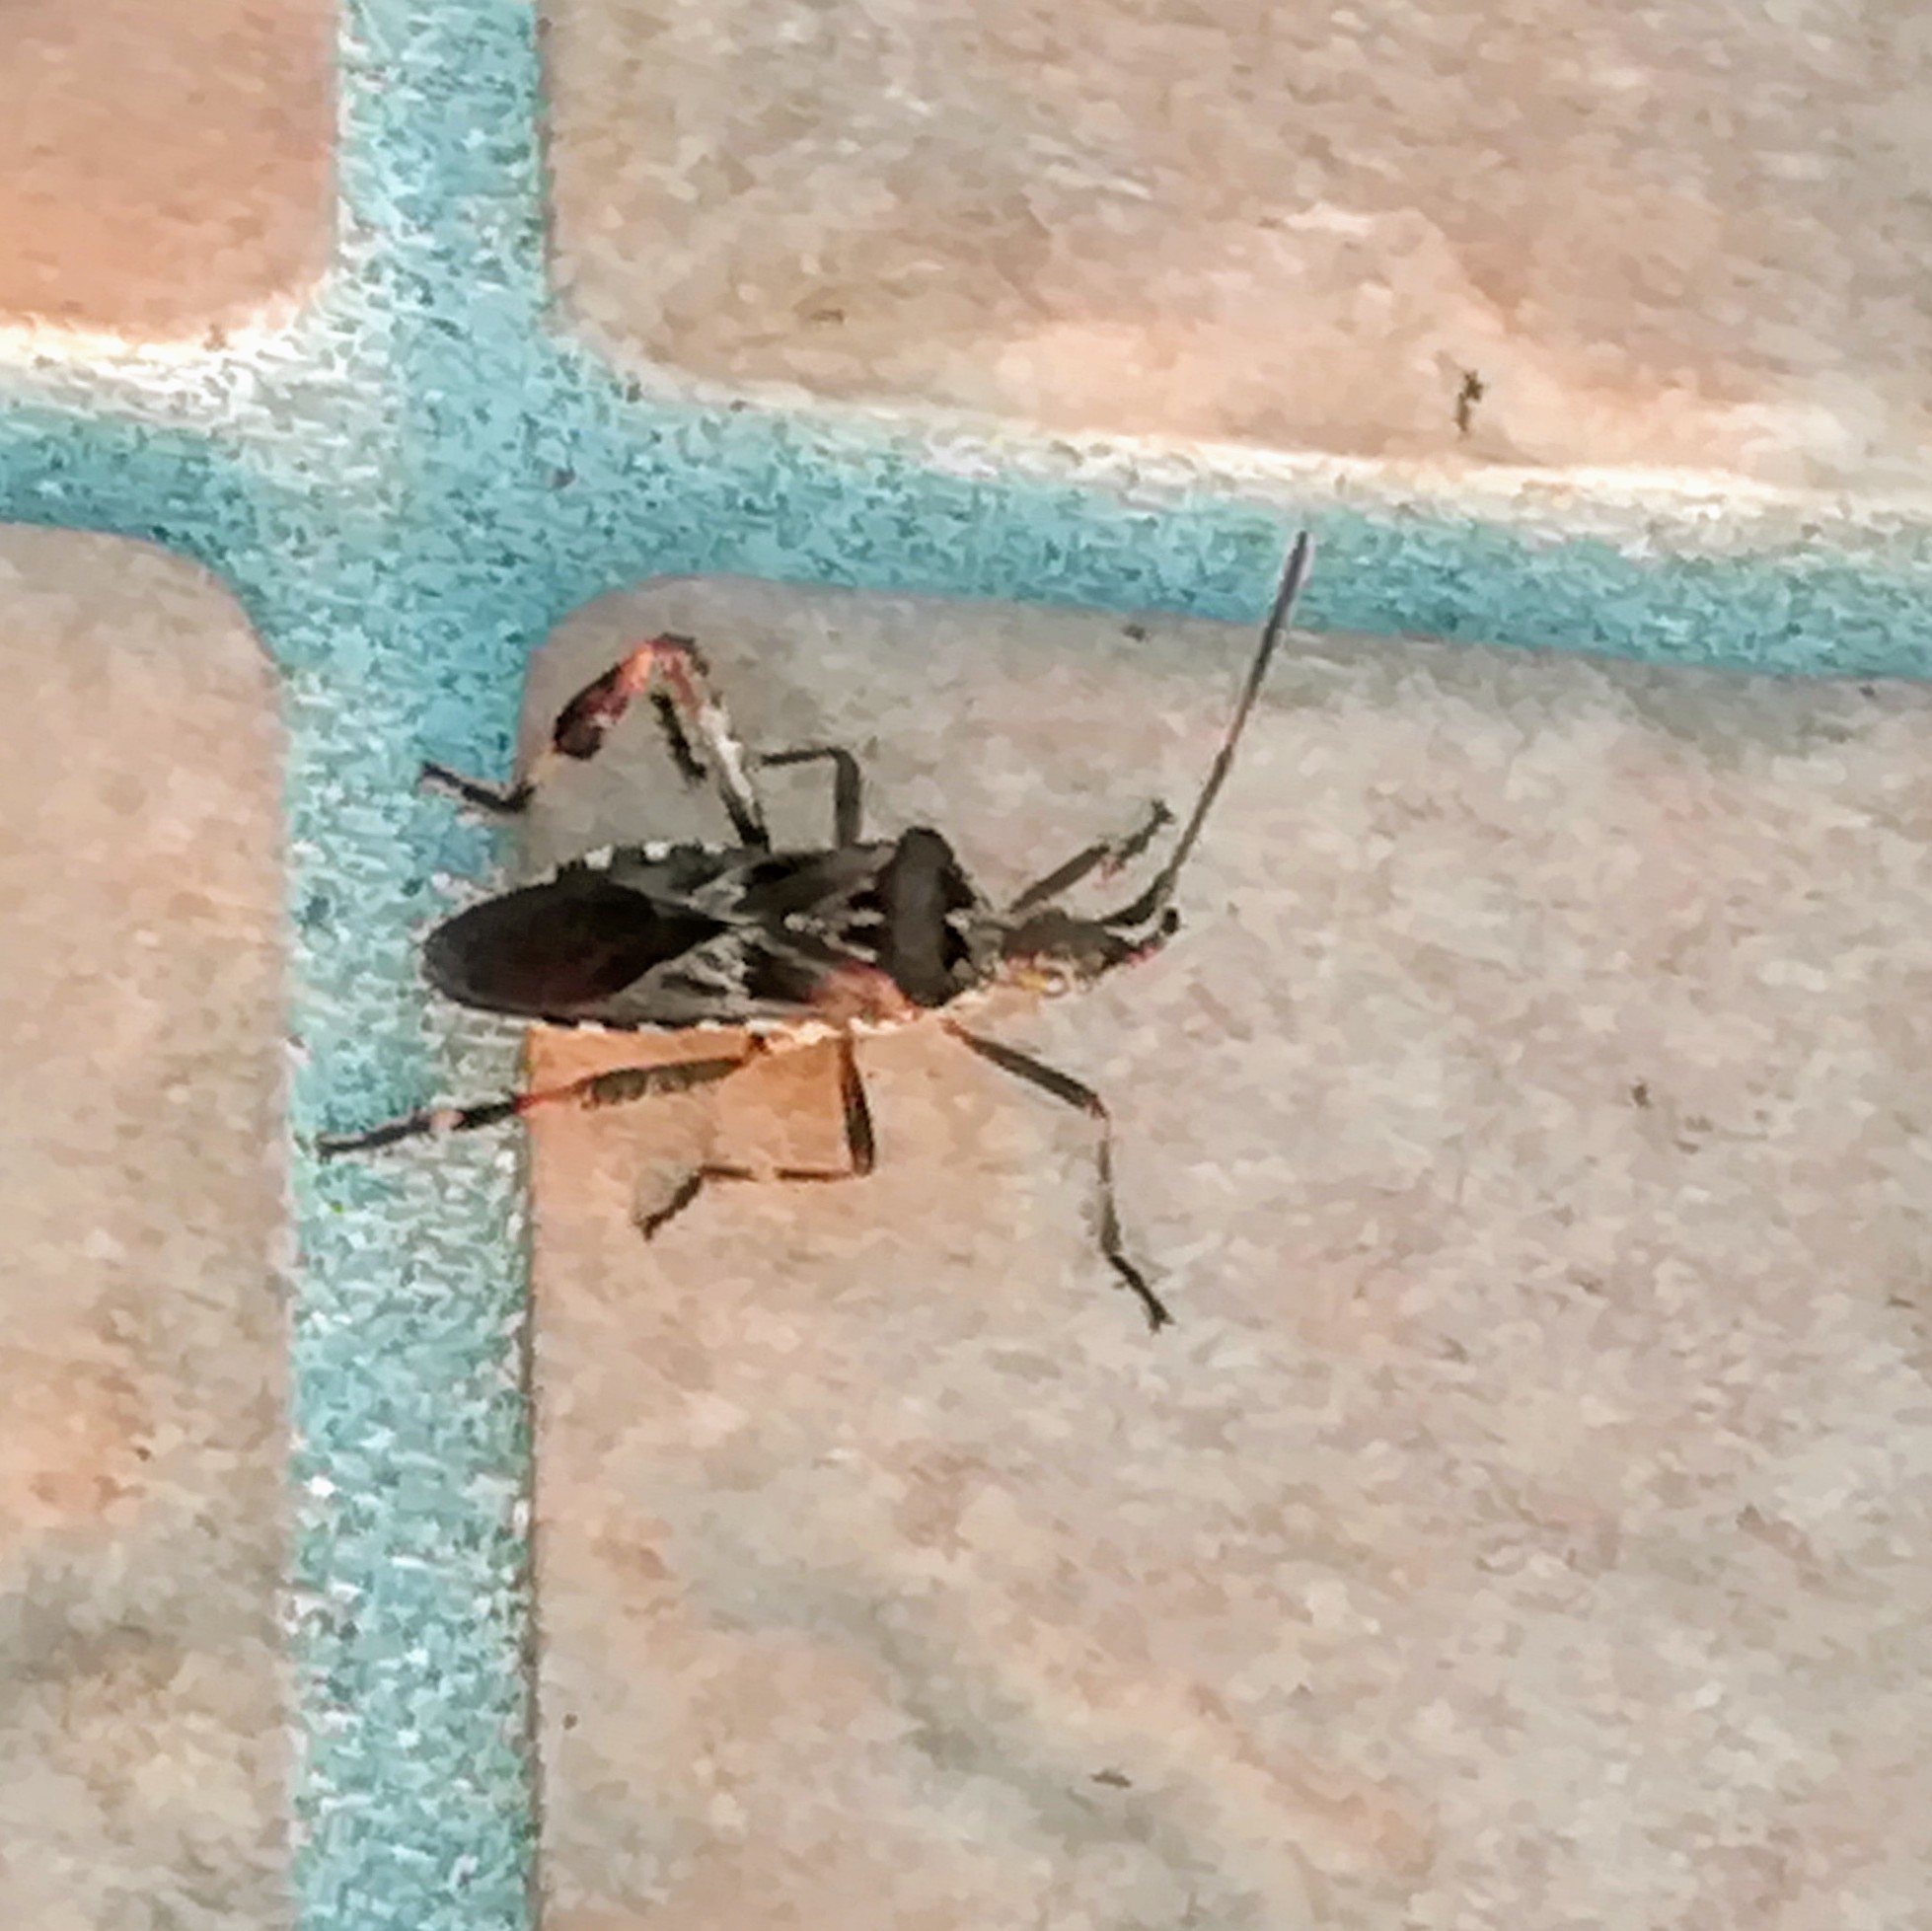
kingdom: Animalia
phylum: Arthropoda
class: Insecta
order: Hemiptera
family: Coreidae
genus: Leptoglossus
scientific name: Leptoglossus occidentalis
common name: Western conifer-seed bug
